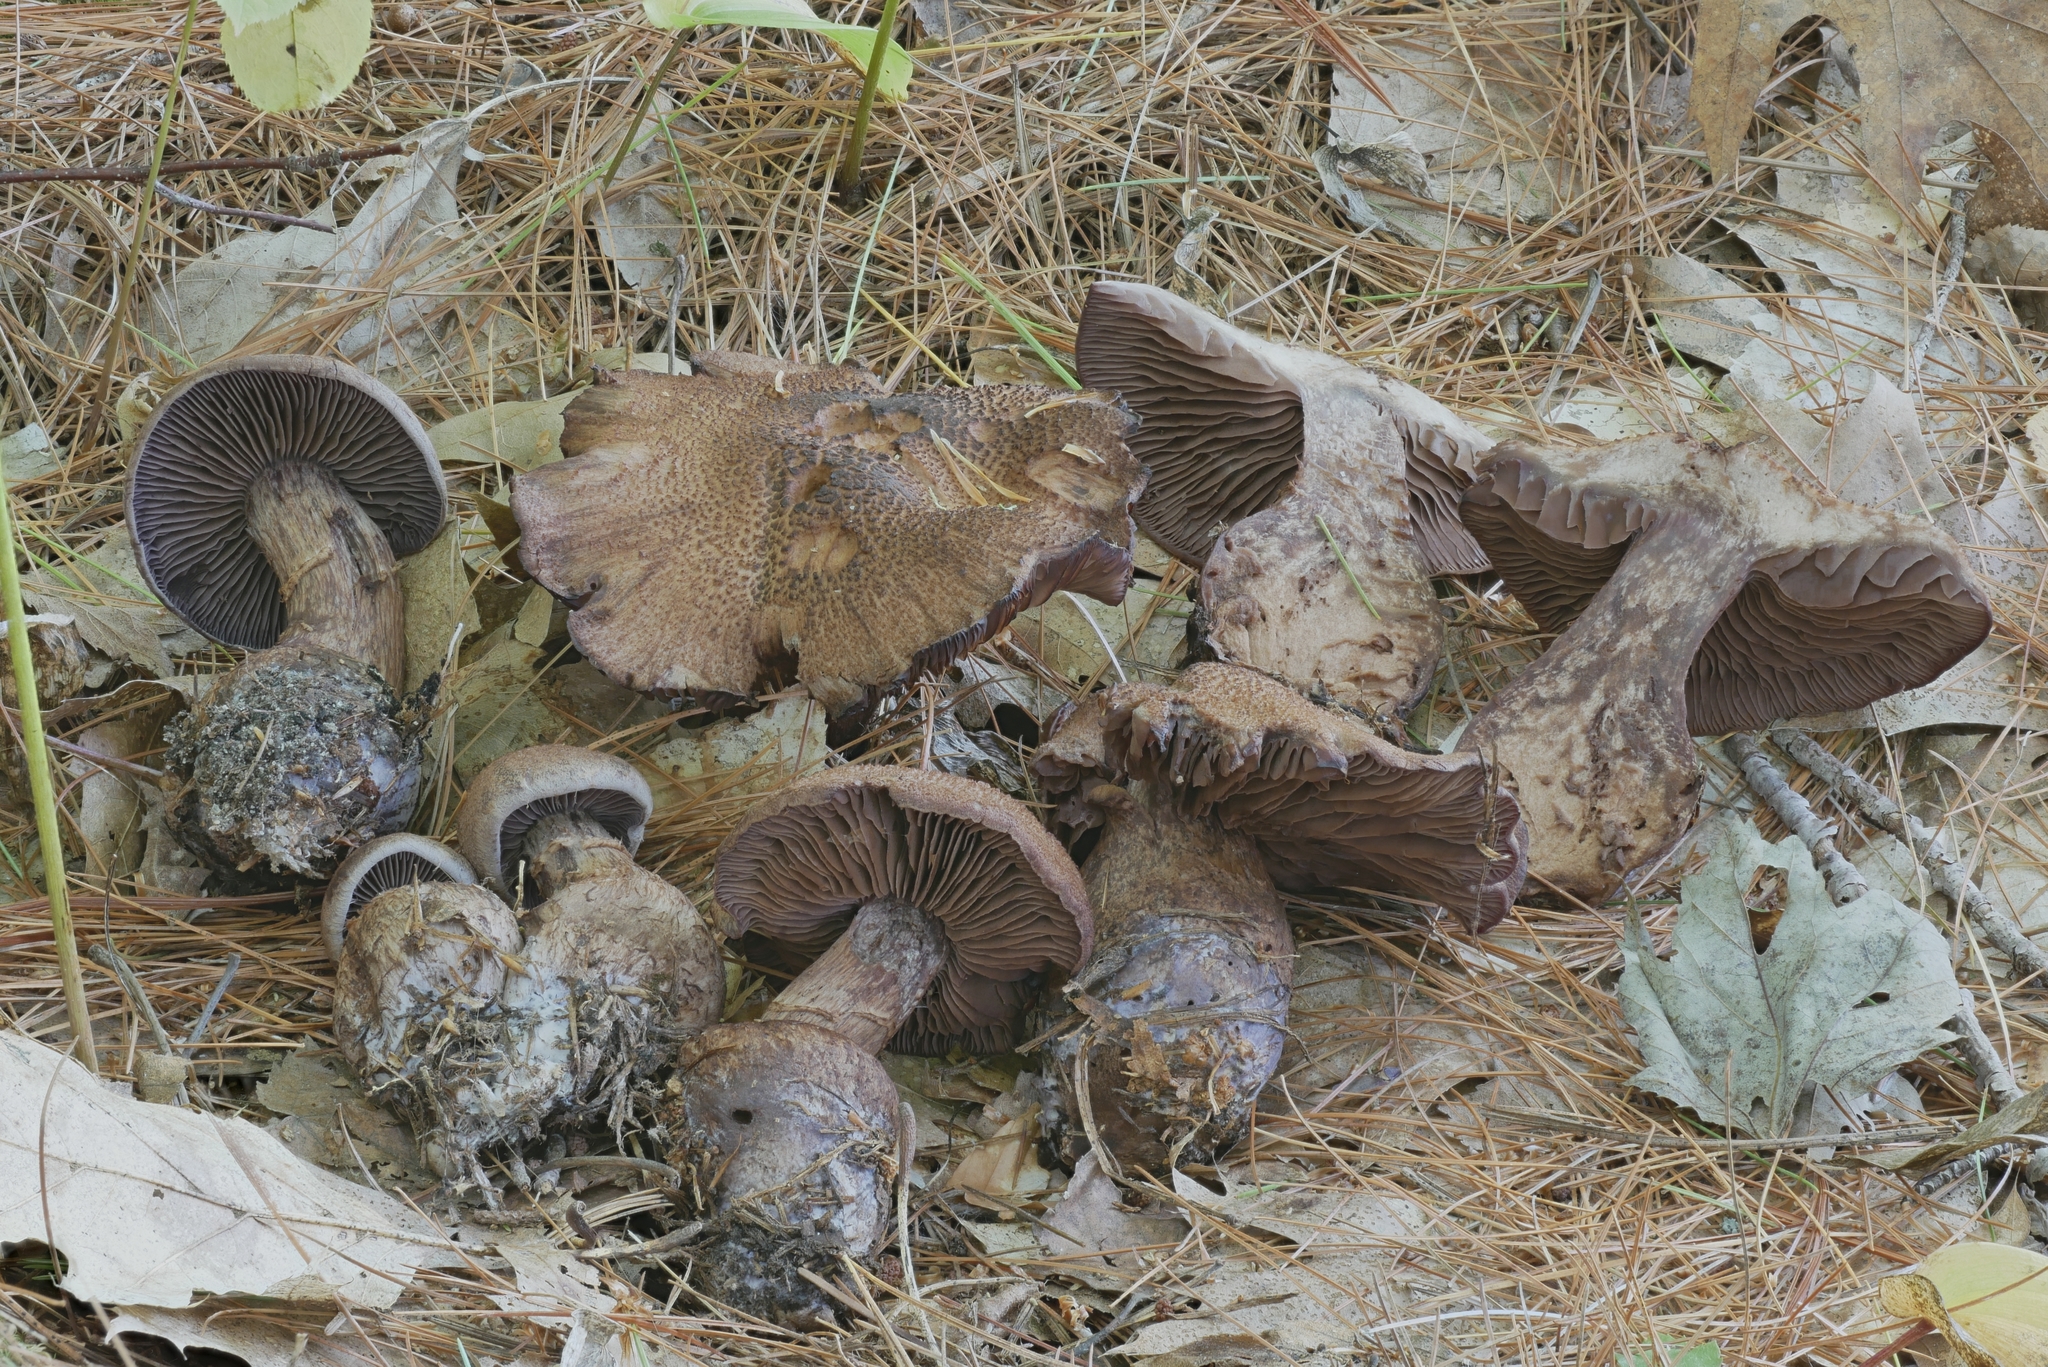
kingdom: Fungi
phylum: Basidiomycota
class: Agaricomycetes
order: Agaricales
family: Cortinariaceae
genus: Cortinarius
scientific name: Cortinarius squamulosus
